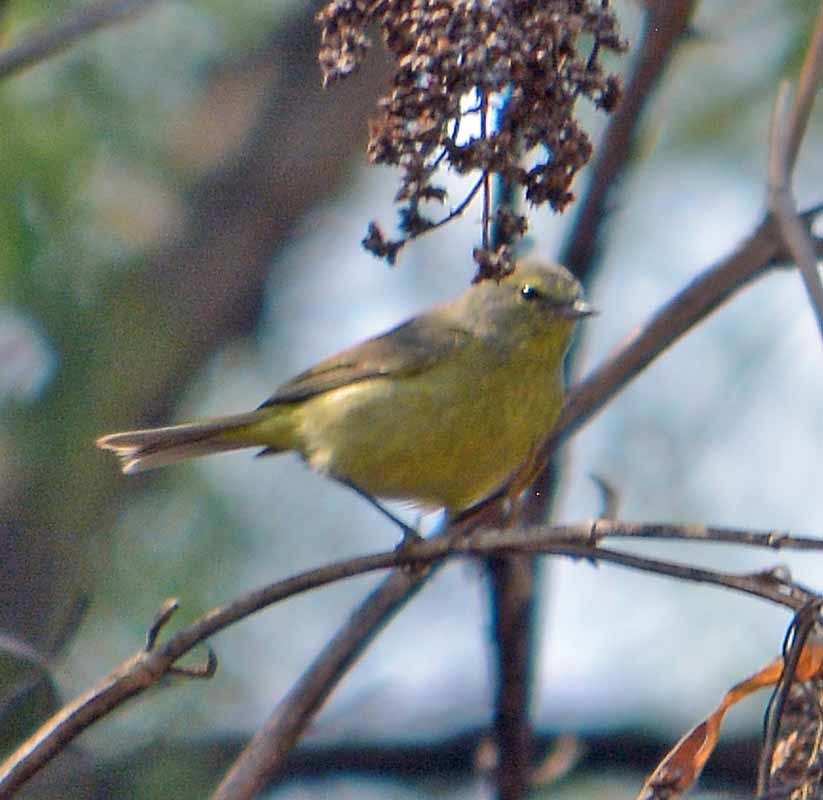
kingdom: Animalia
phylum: Chordata
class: Aves
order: Passeriformes
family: Parulidae
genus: Leiothlypis
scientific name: Leiothlypis celata
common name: Orange-crowned warbler
